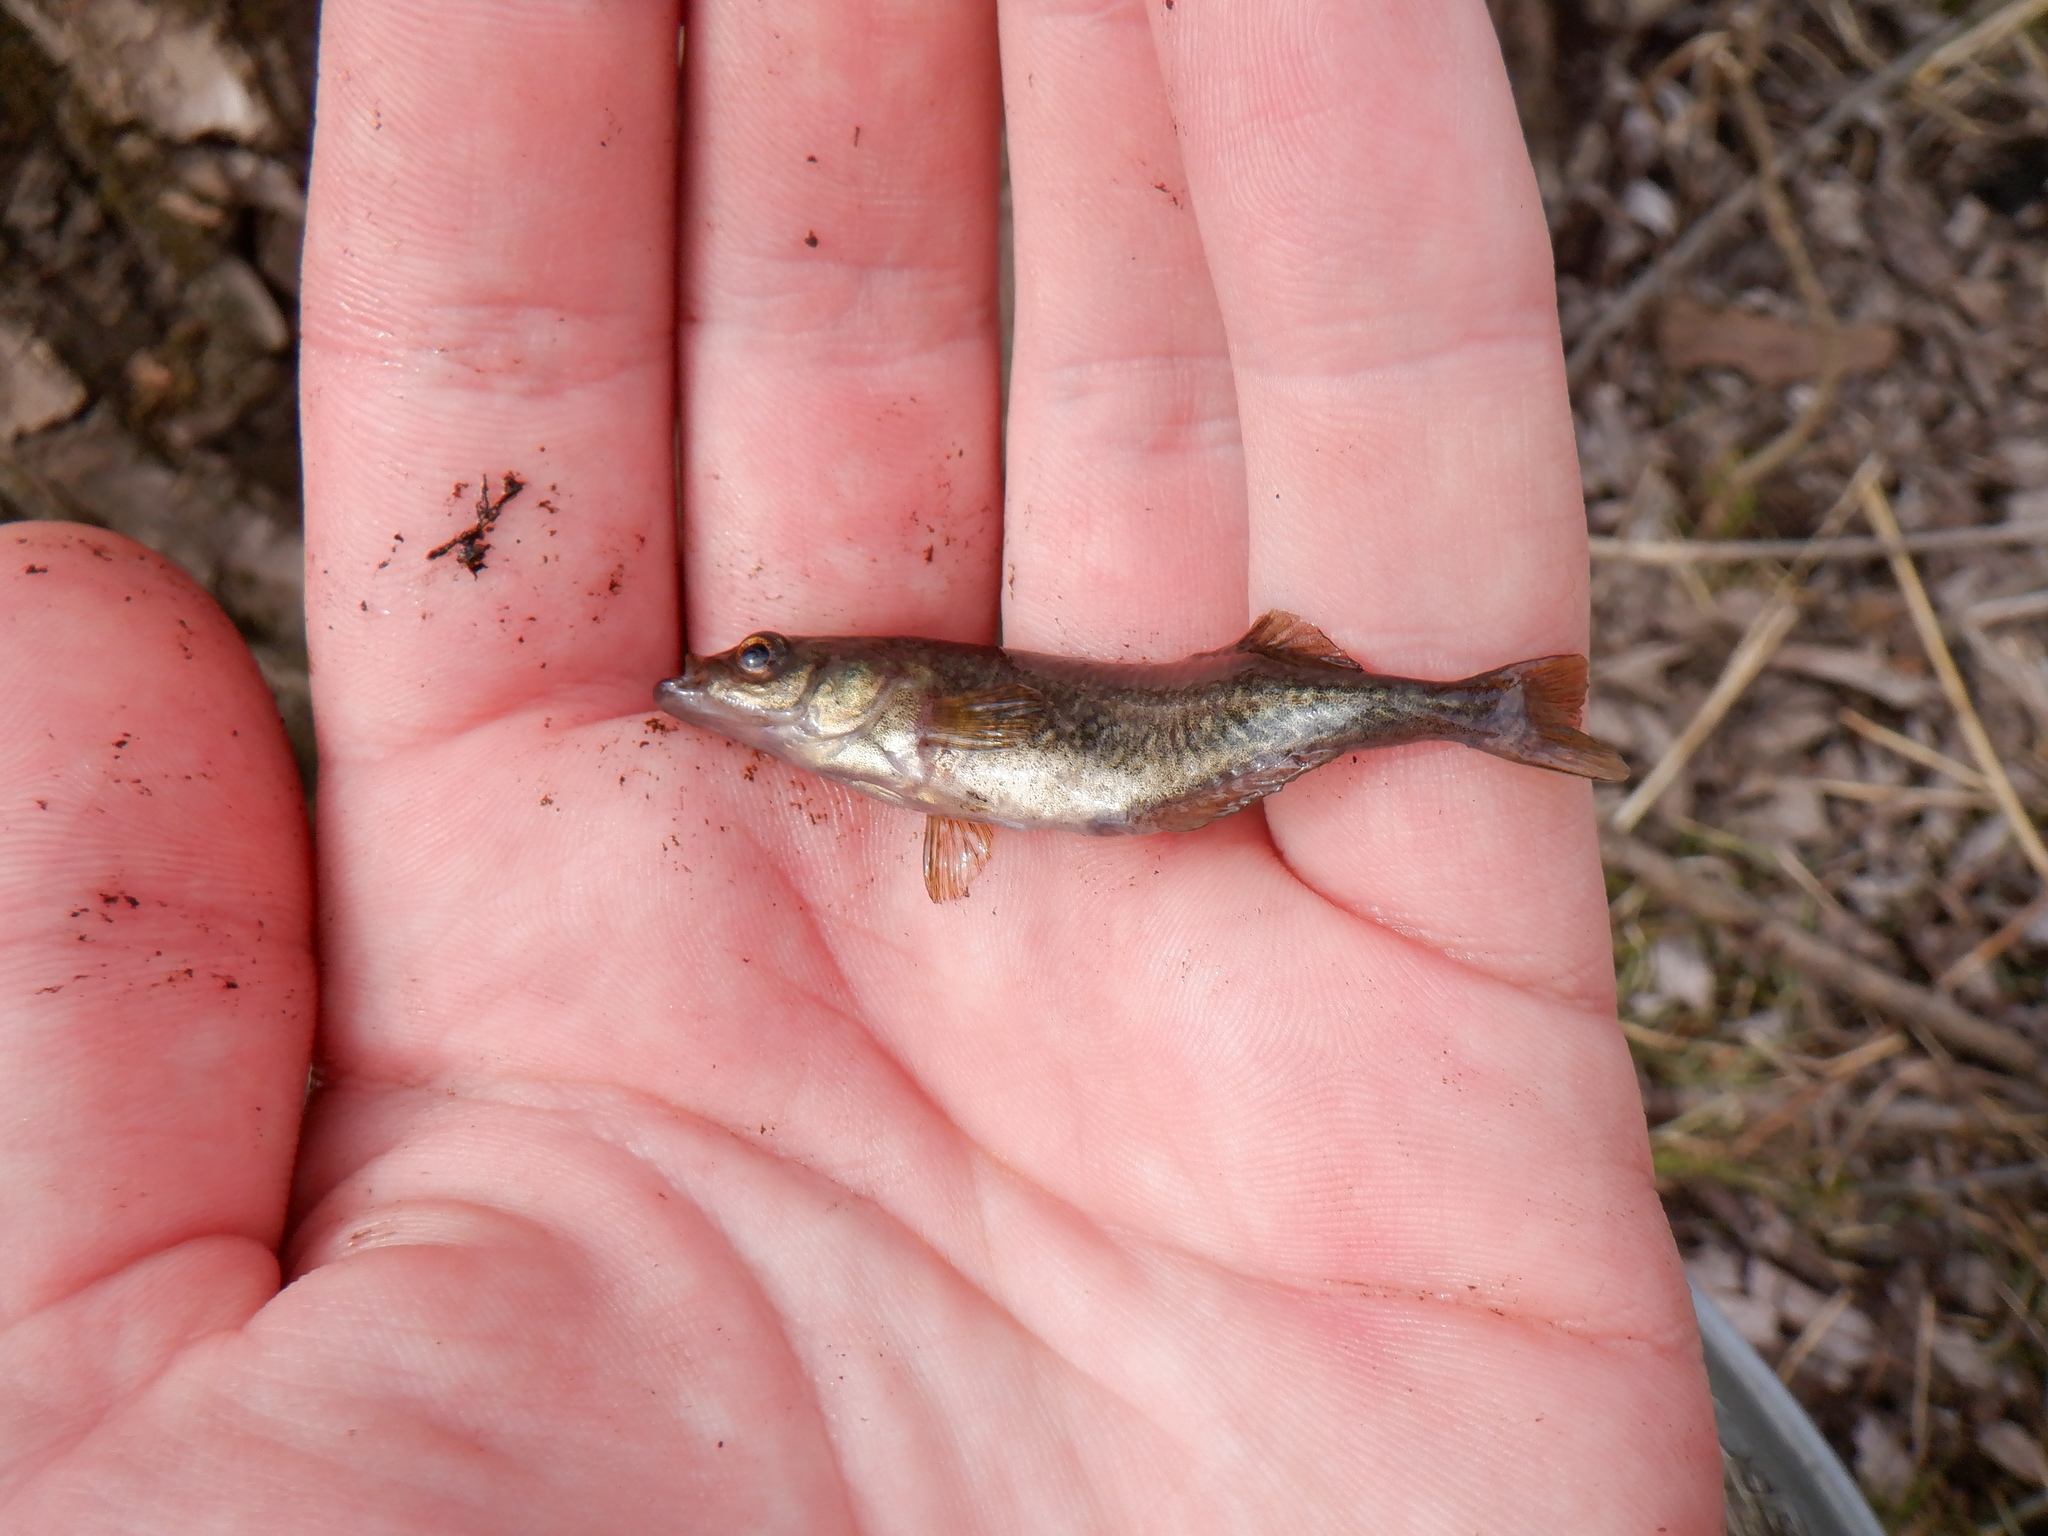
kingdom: Animalia
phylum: Chordata
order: Gasterosteiformes
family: Gasterosteidae
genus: Culaea
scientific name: Culaea inconstans
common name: Brook stickleback
